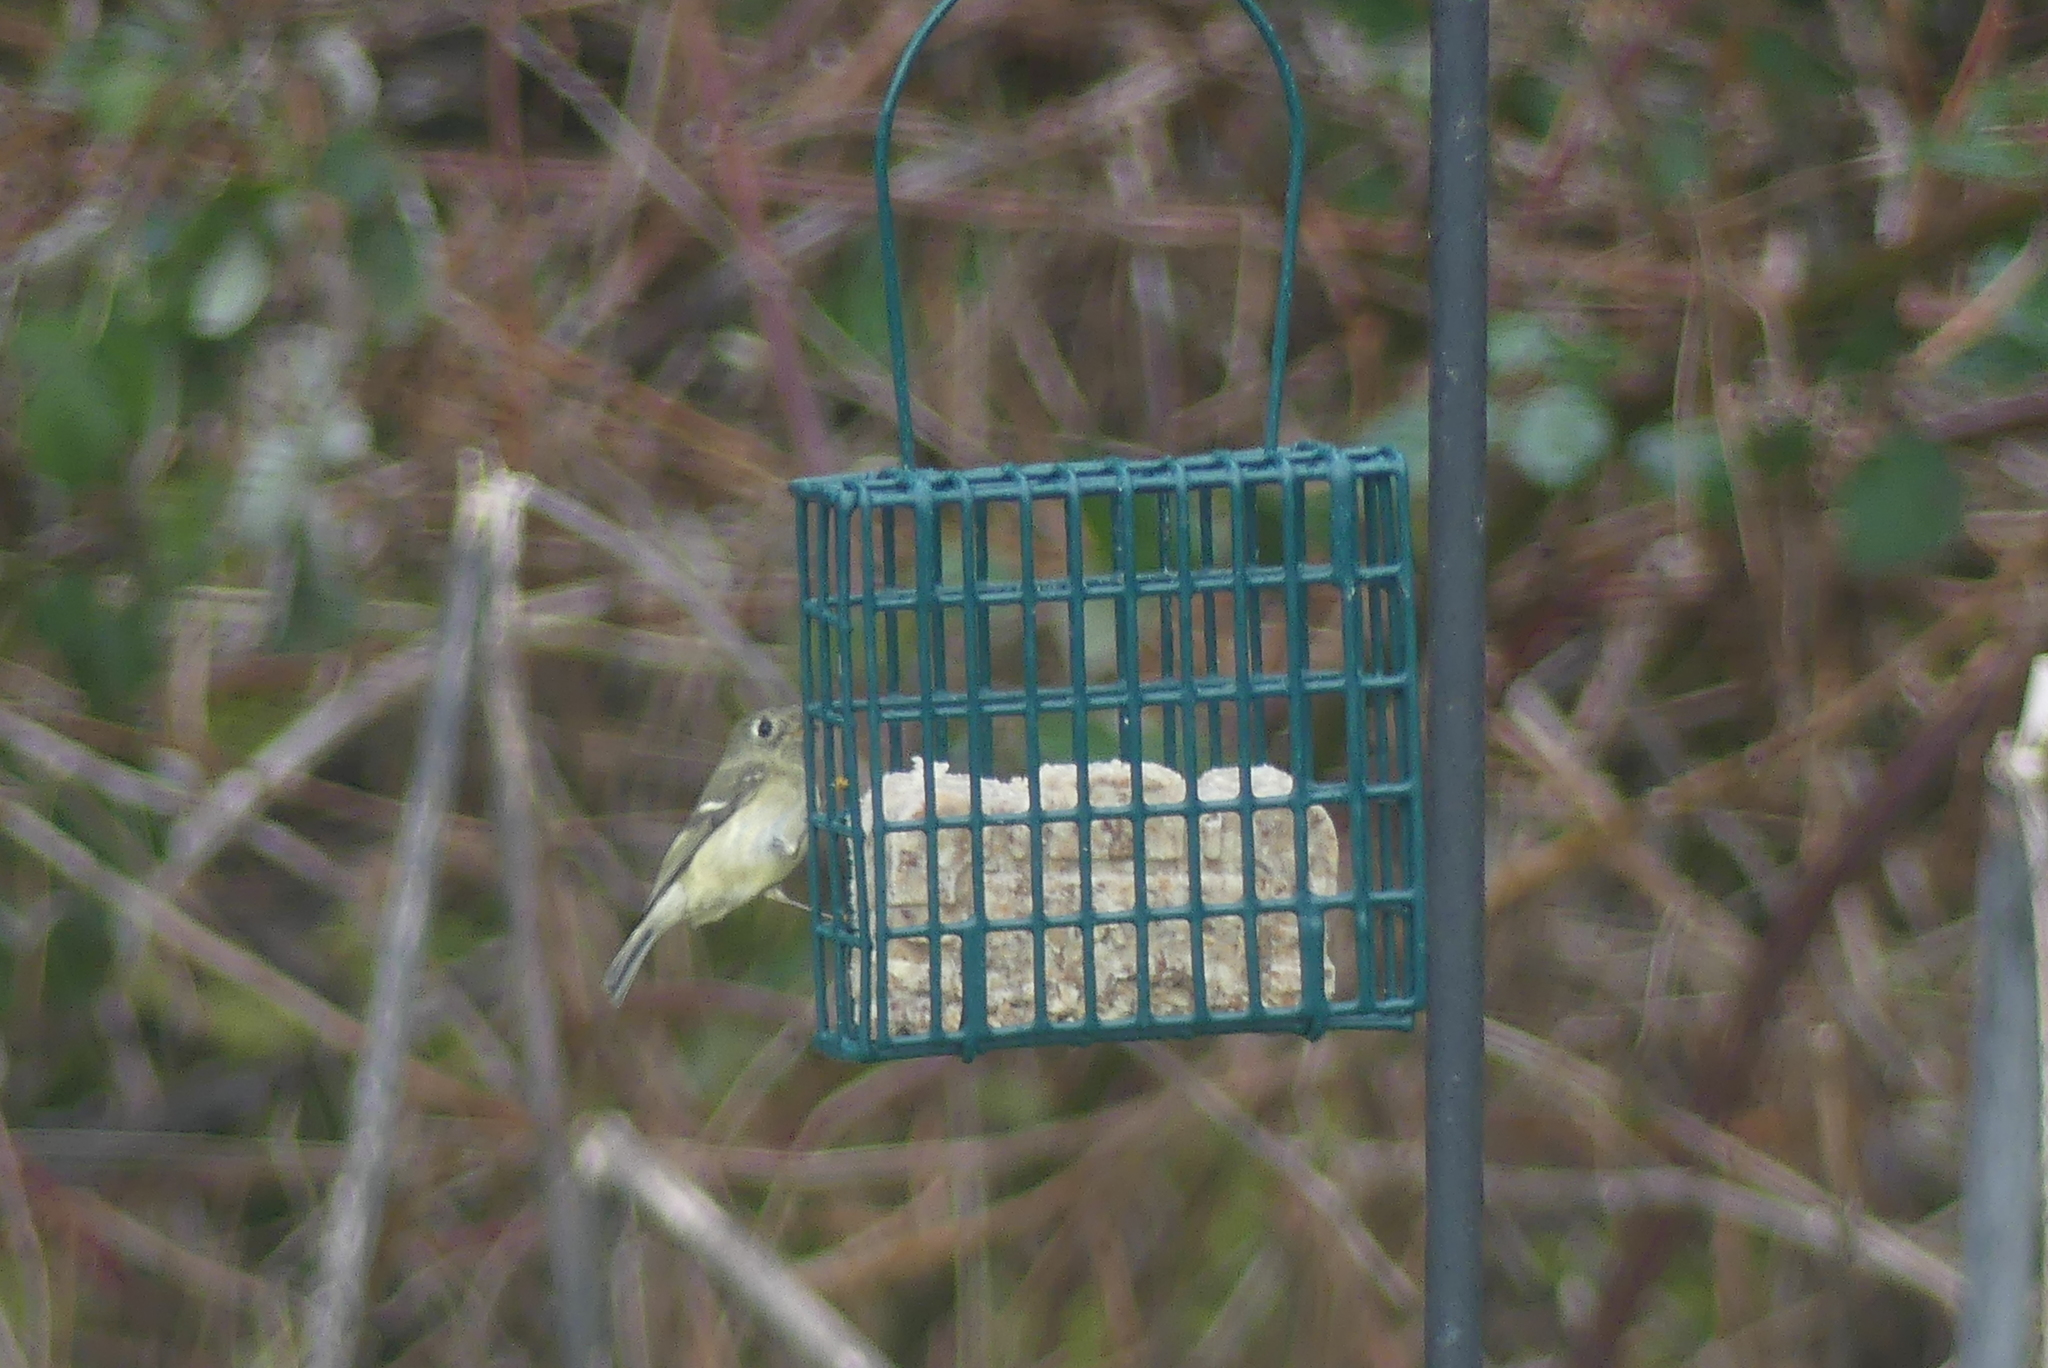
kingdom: Animalia
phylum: Chordata
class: Aves
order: Passeriformes
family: Regulidae
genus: Regulus
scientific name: Regulus calendula
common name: Ruby-crowned kinglet
